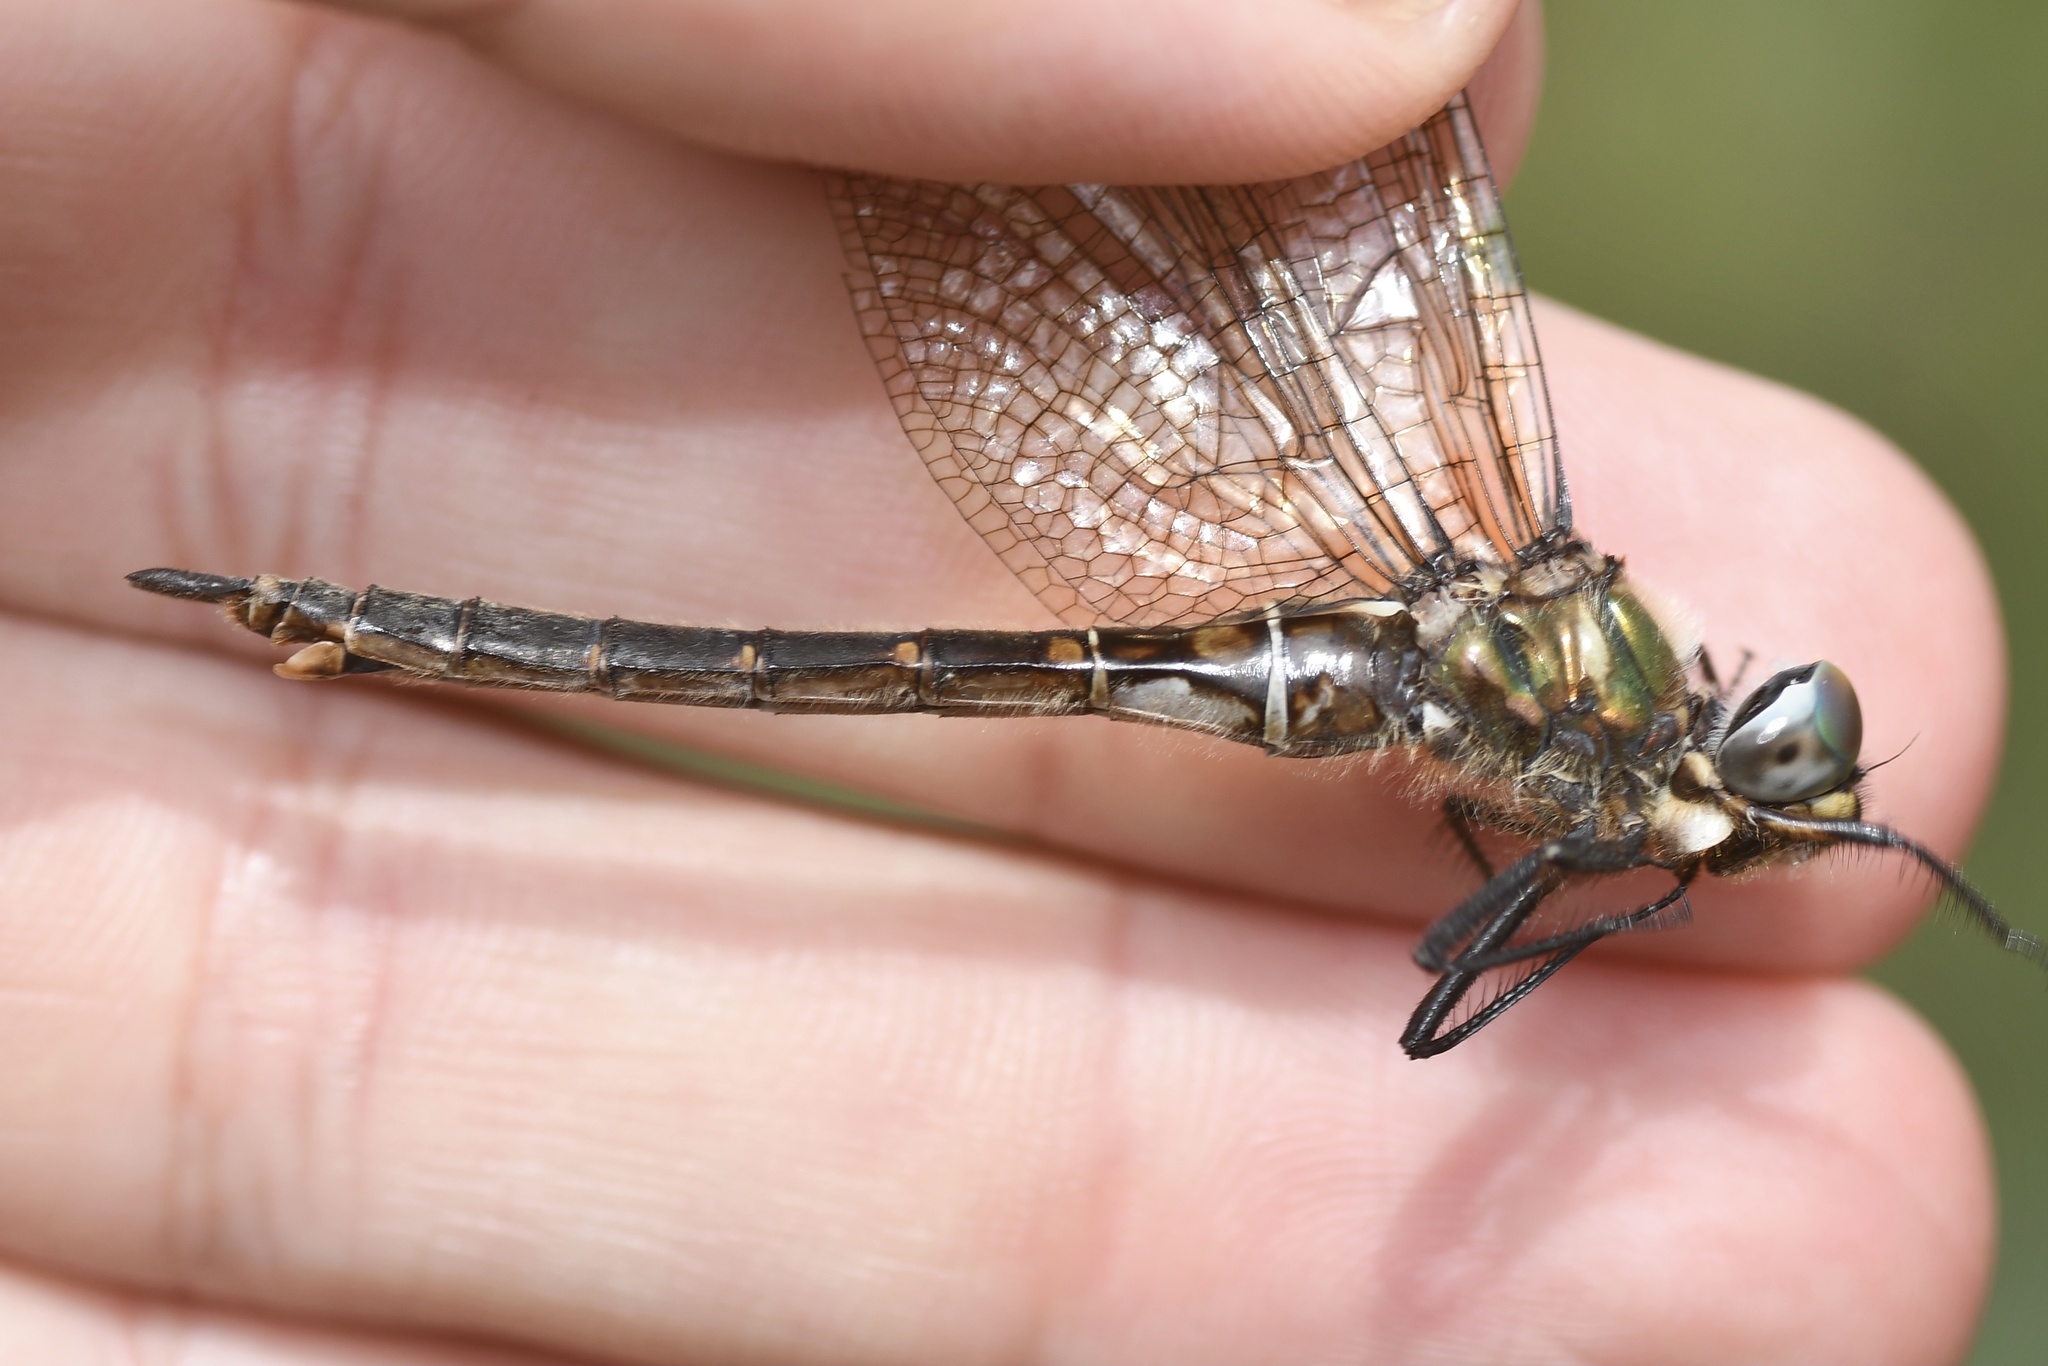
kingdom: Animalia
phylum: Arthropoda
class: Insecta
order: Odonata
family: Corduliidae
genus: Somatochlora
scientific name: Somatochlora brevicincta
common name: Quebec emerald
